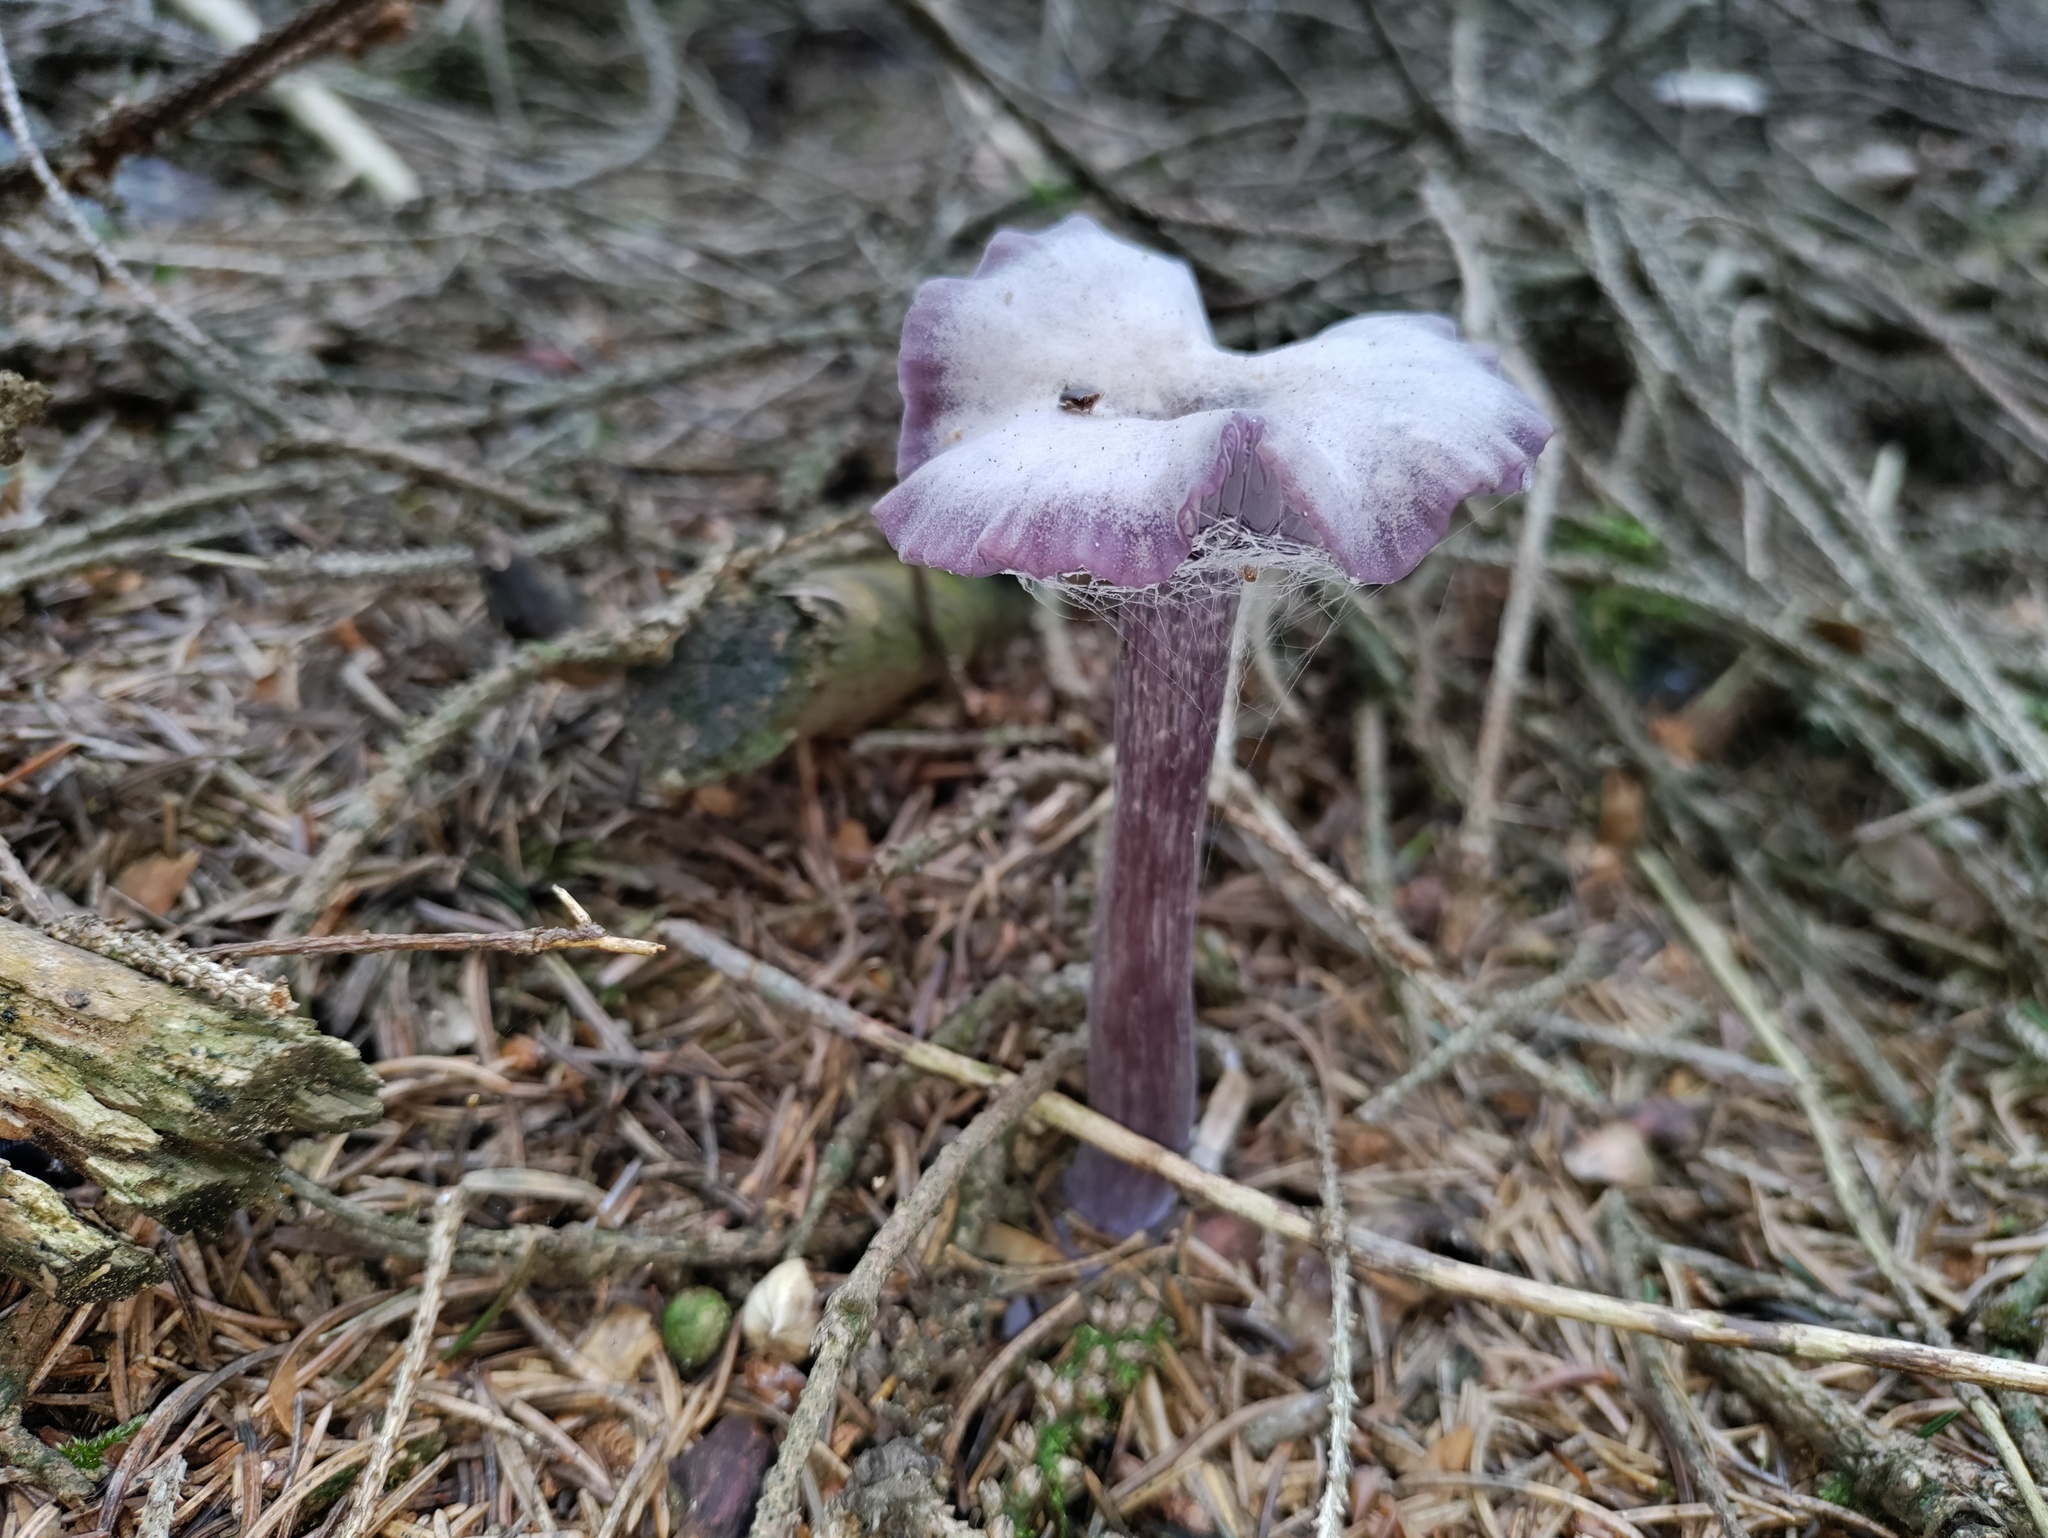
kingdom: Fungi
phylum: Basidiomycota
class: Agaricomycetes
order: Agaricales
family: Hydnangiaceae
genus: Laccaria
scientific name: Laccaria amethystina
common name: Amethyst deceiver
